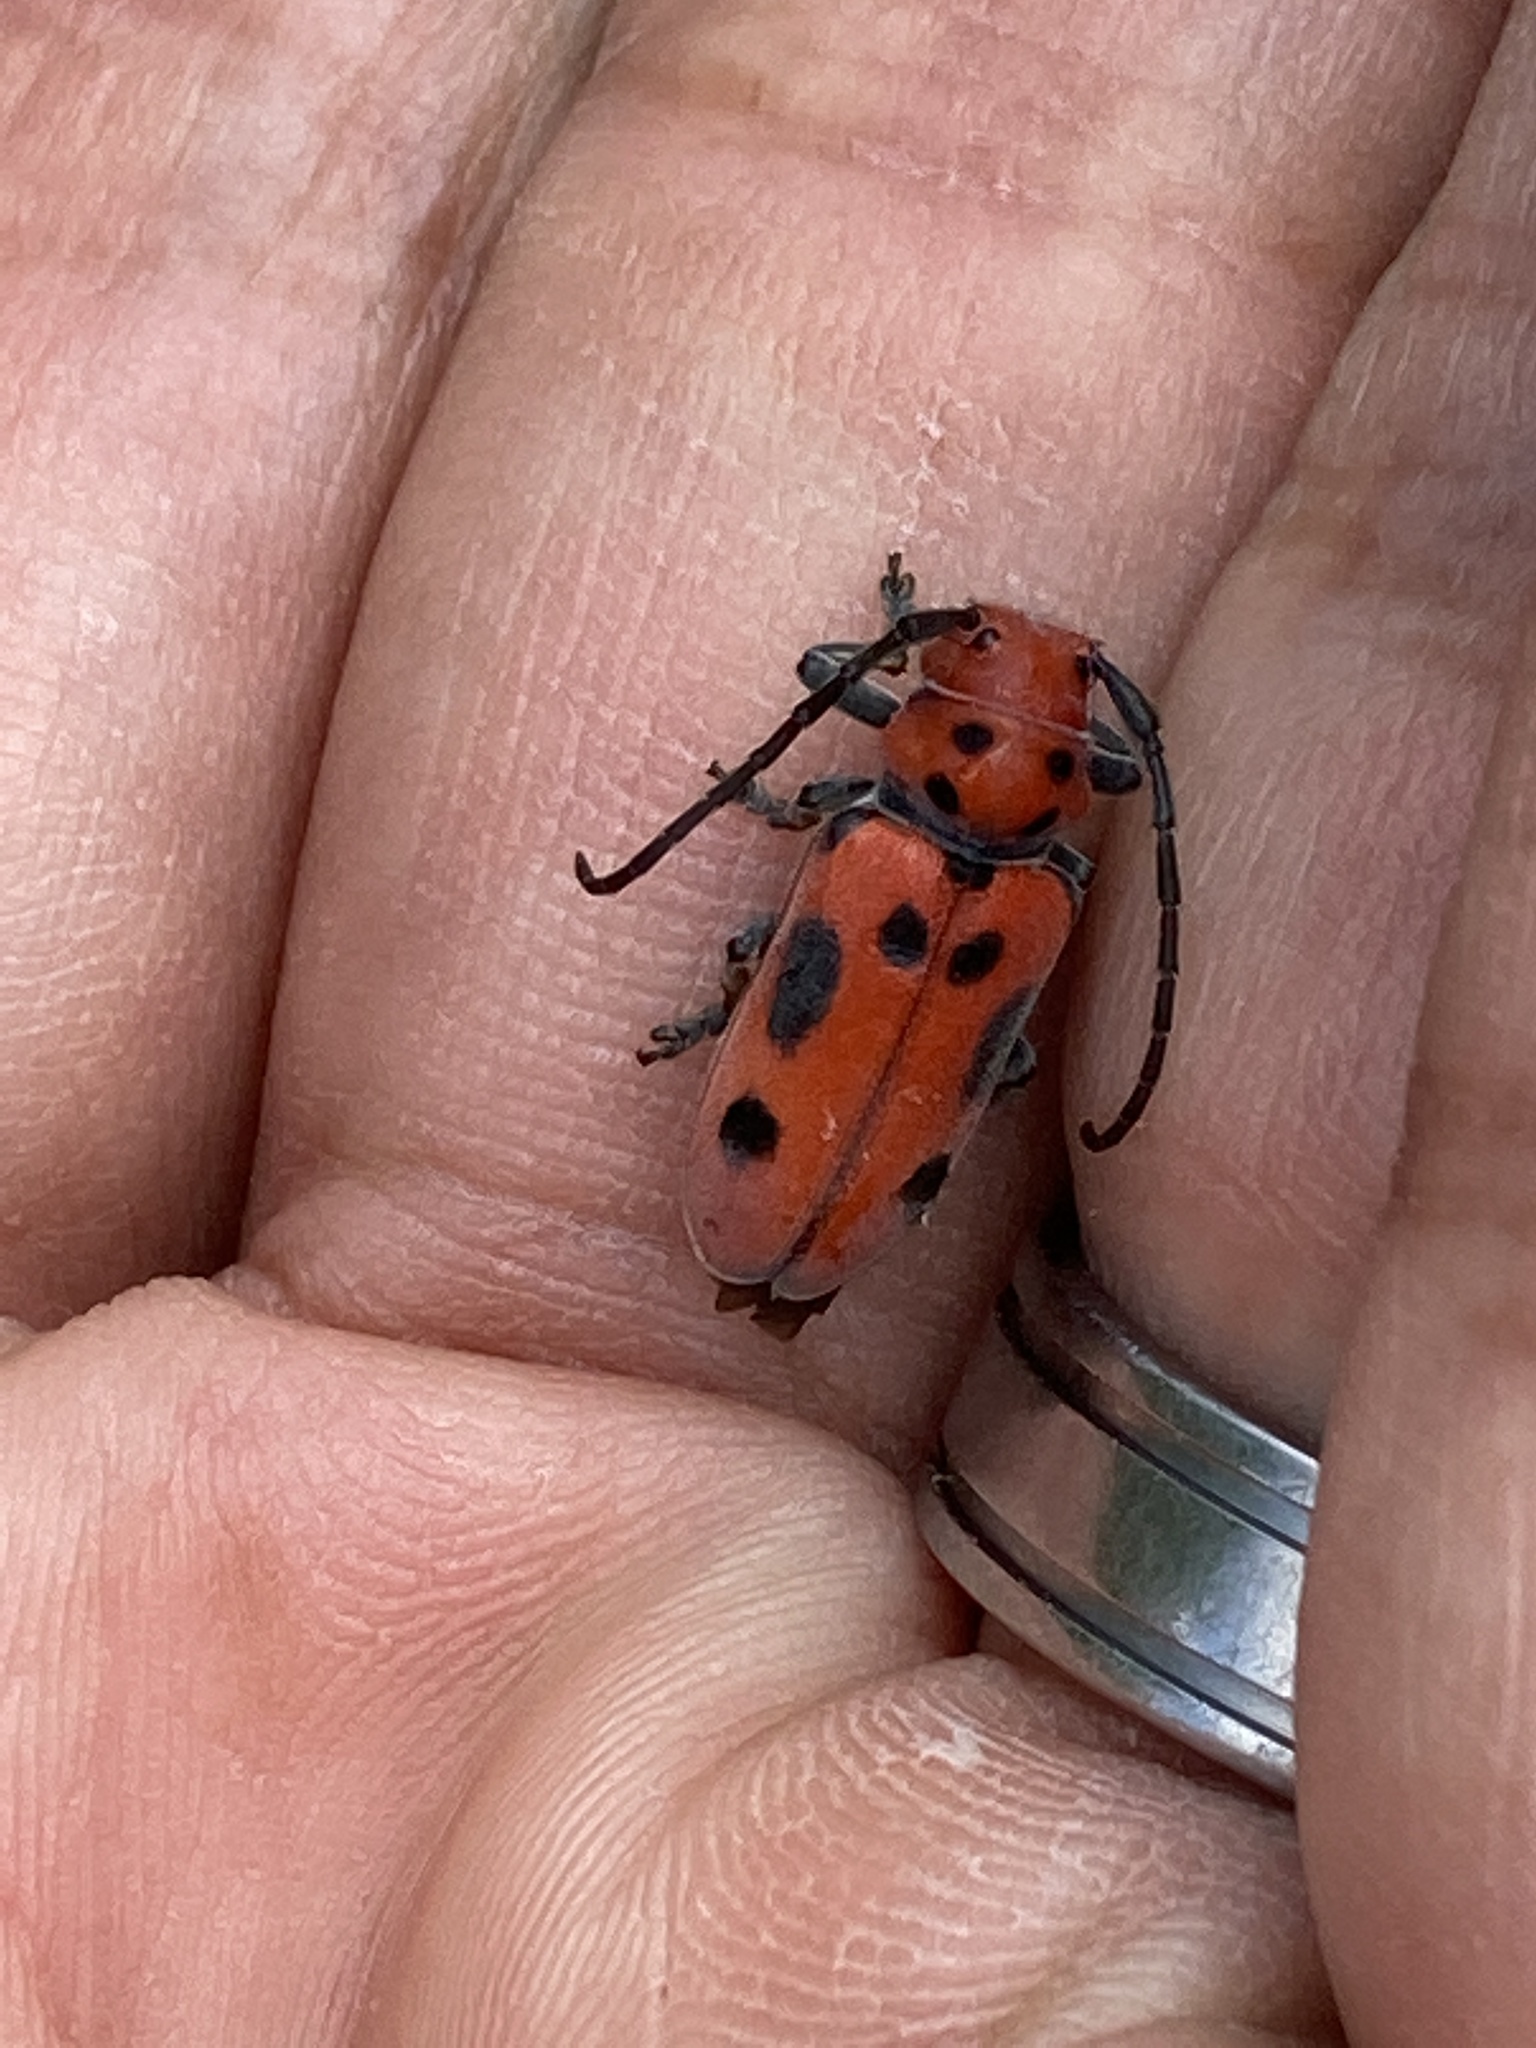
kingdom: Animalia
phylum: Arthropoda
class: Insecta
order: Coleoptera
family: Cerambycidae
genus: Tetraopes
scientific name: Tetraopes tetrophthalmus
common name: Red milkweed beetle
